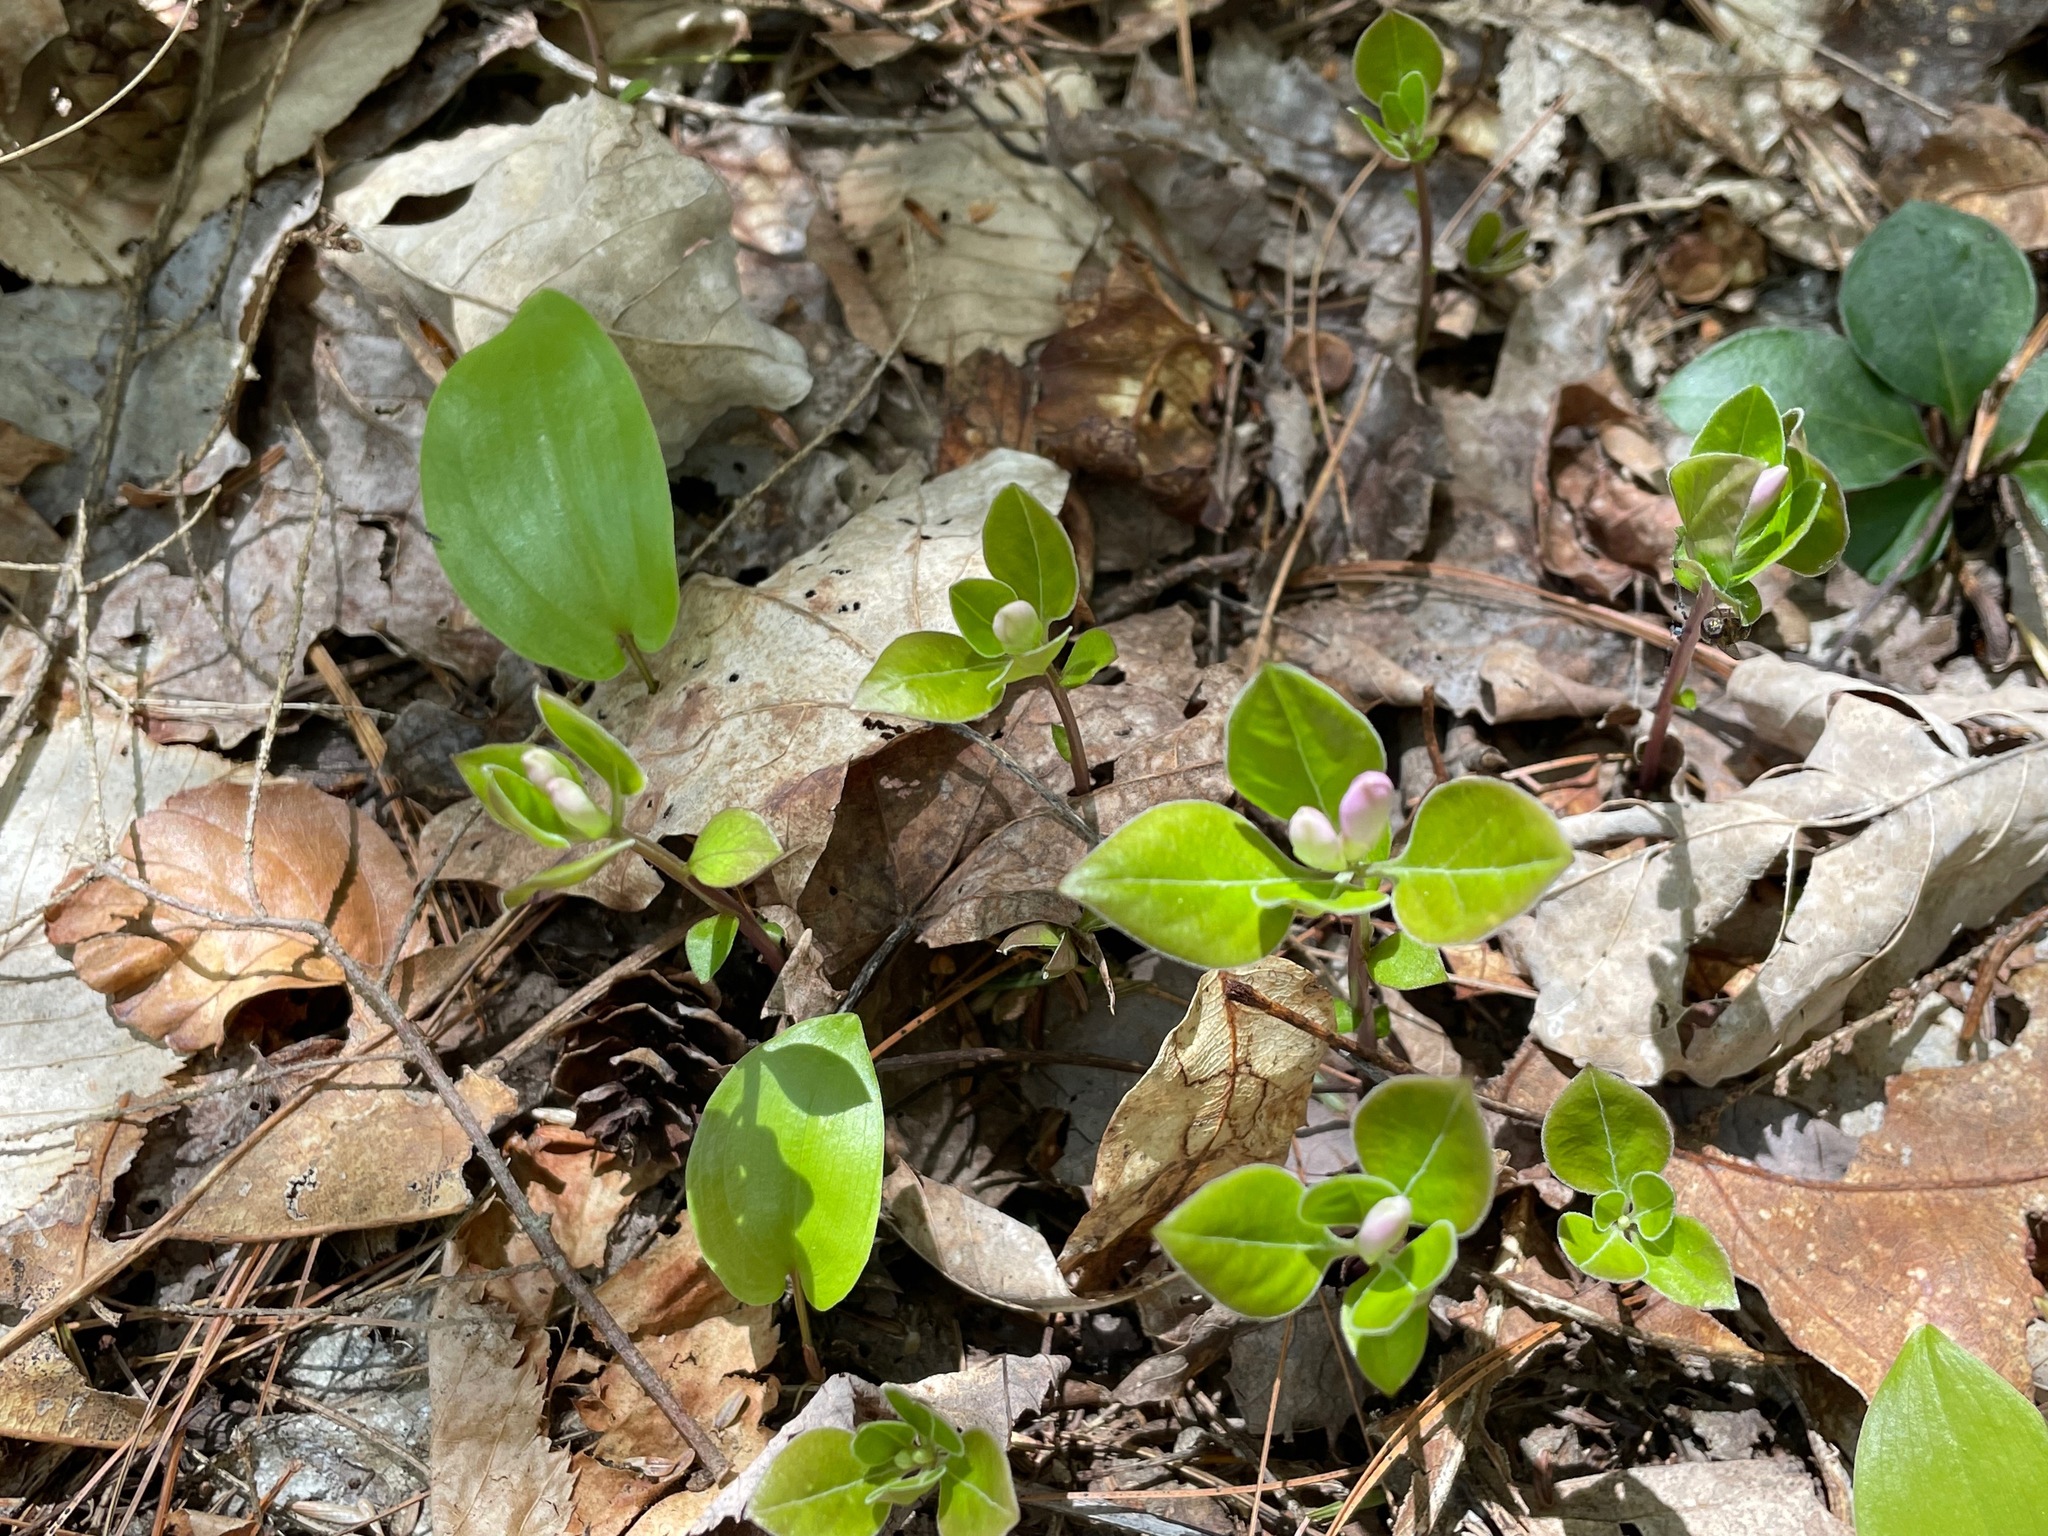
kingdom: Plantae
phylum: Tracheophyta
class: Magnoliopsida
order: Fabales
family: Polygalaceae
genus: Polygaloides
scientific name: Polygaloides paucifolia
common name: Bird-on-the-wing
